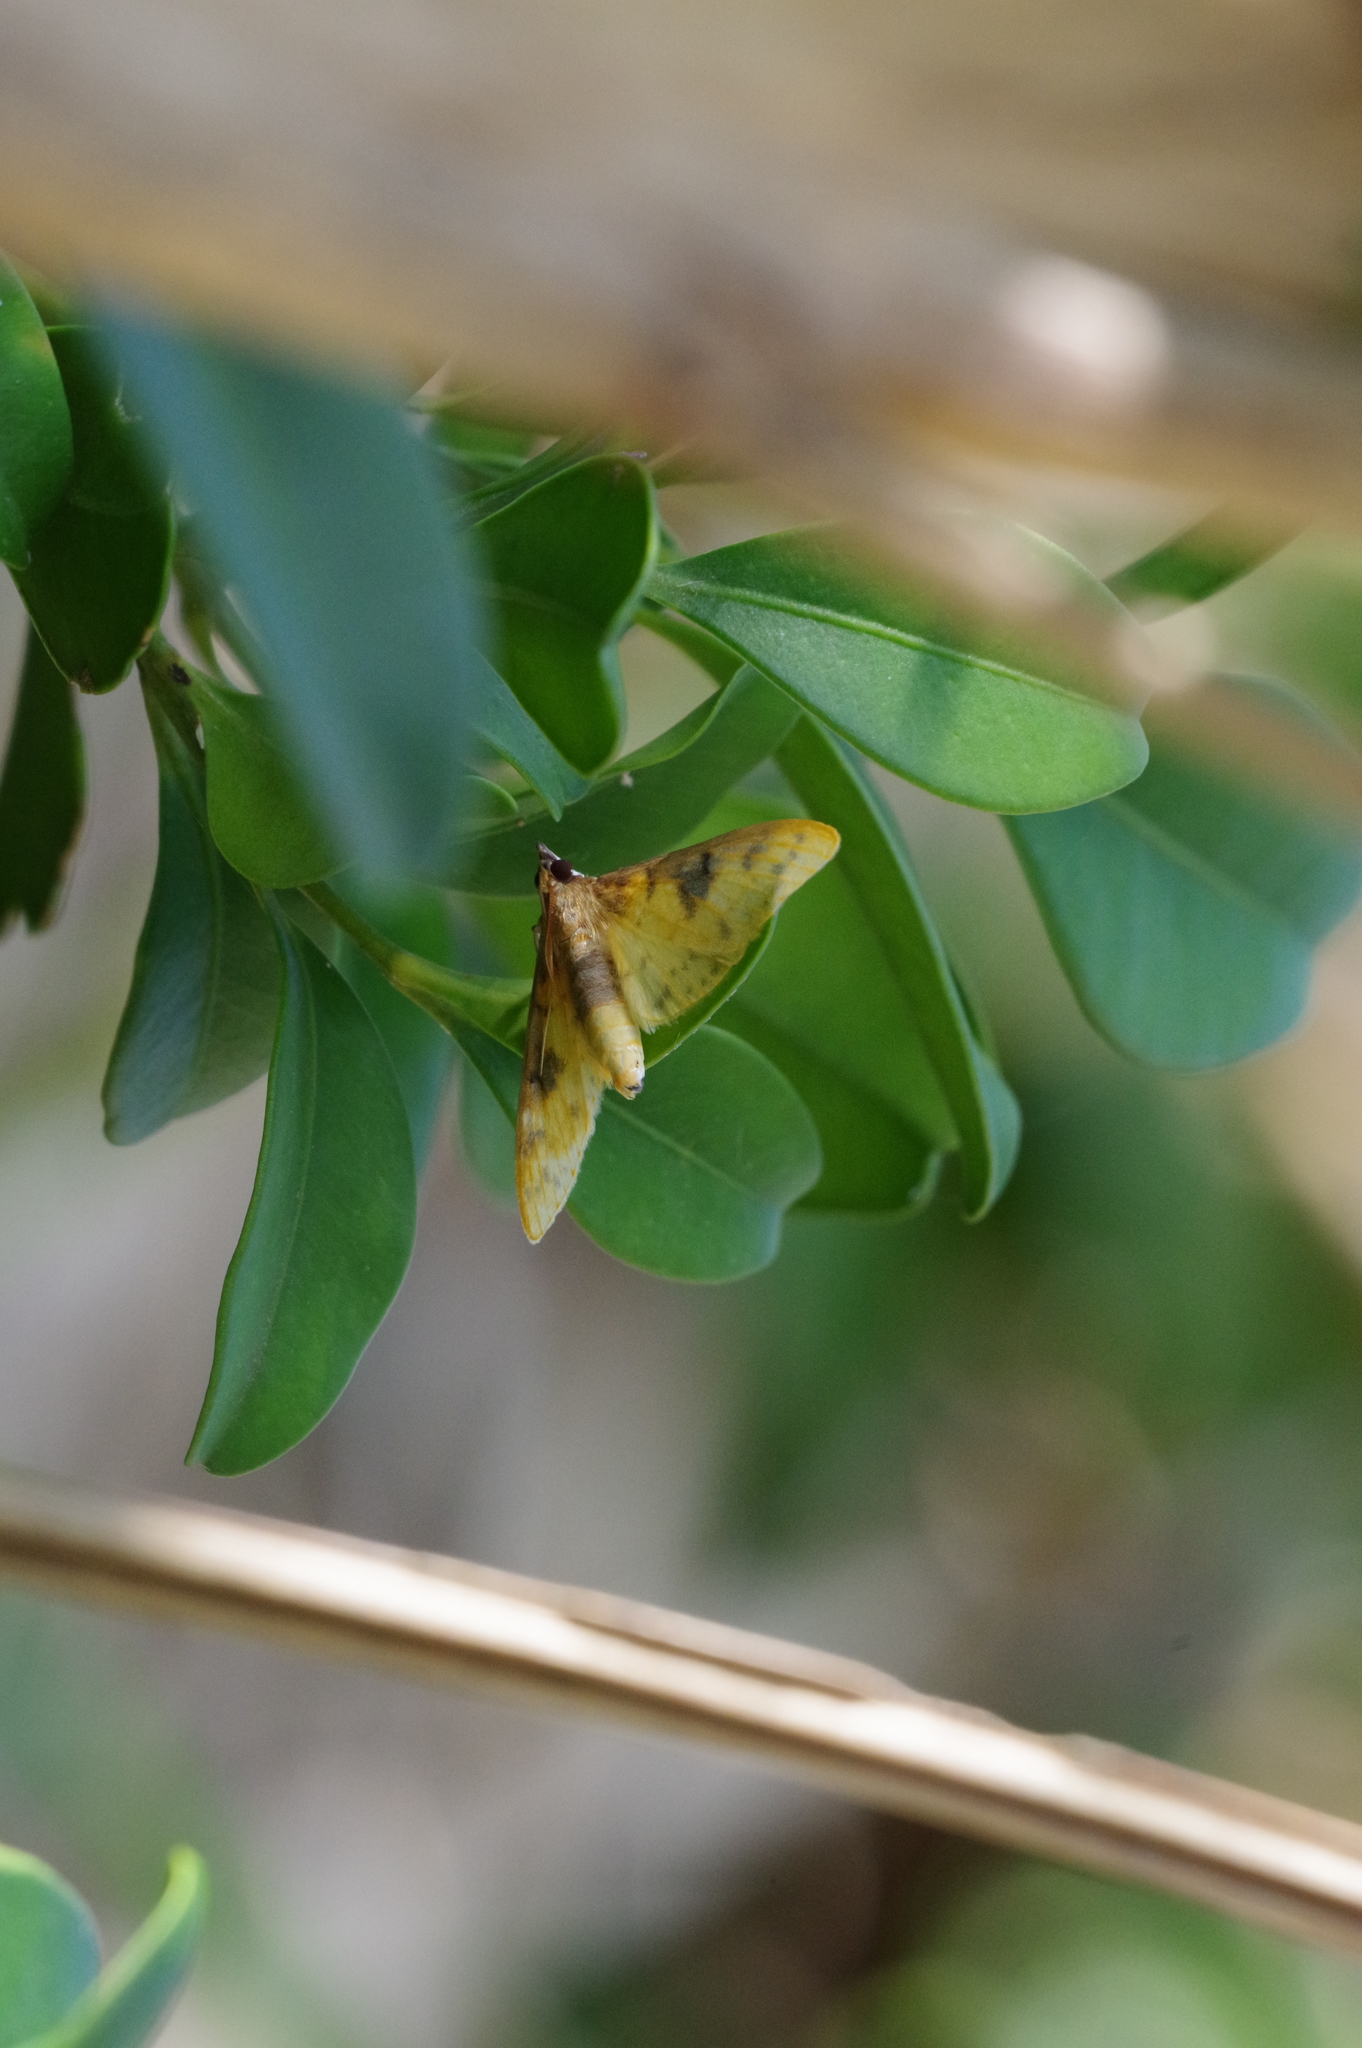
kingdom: Animalia
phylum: Arthropoda
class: Insecta
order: Lepidoptera
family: Crambidae
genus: Polygrammodes
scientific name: Polygrammodes sabelialis
